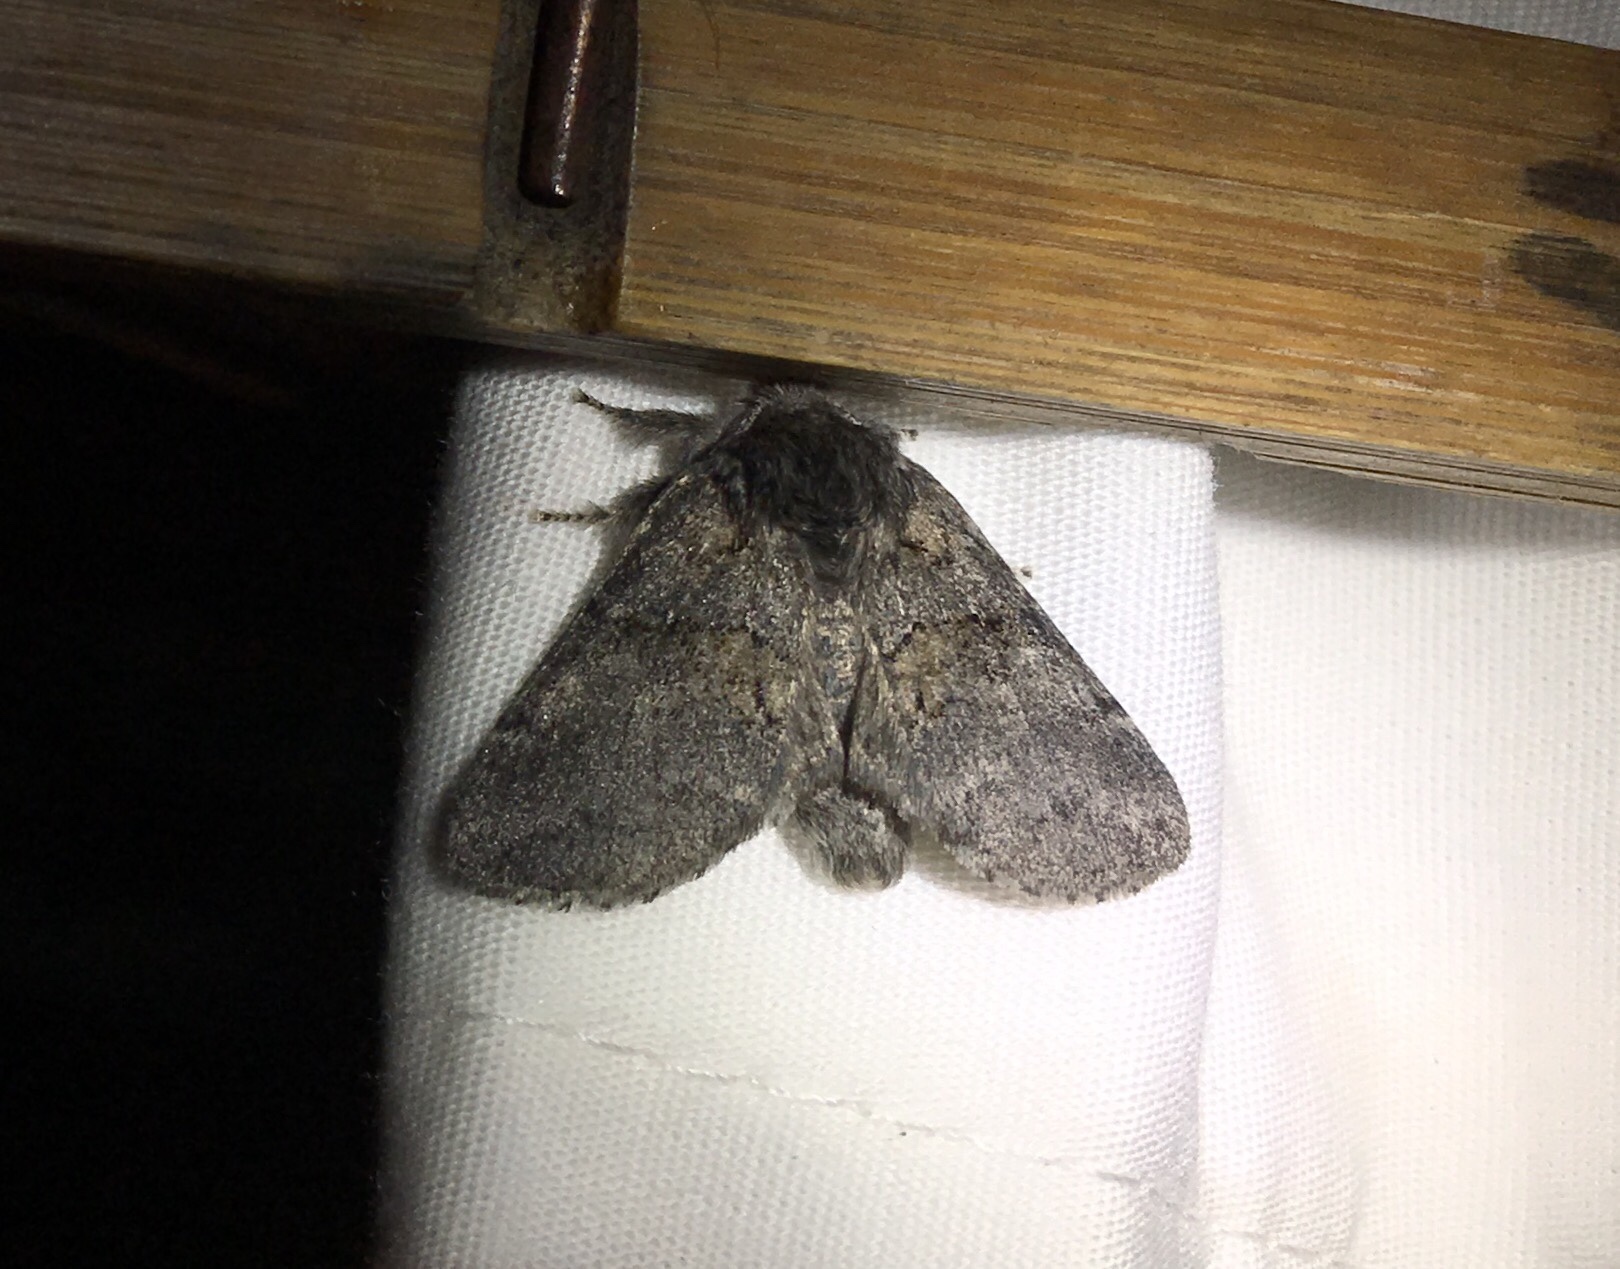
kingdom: Animalia
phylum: Arthropoda
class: Insecta
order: Lepidoptera
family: Notodontidae
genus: Gluphisia
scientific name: Gluphisia septentrionis
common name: Common gluphisia
